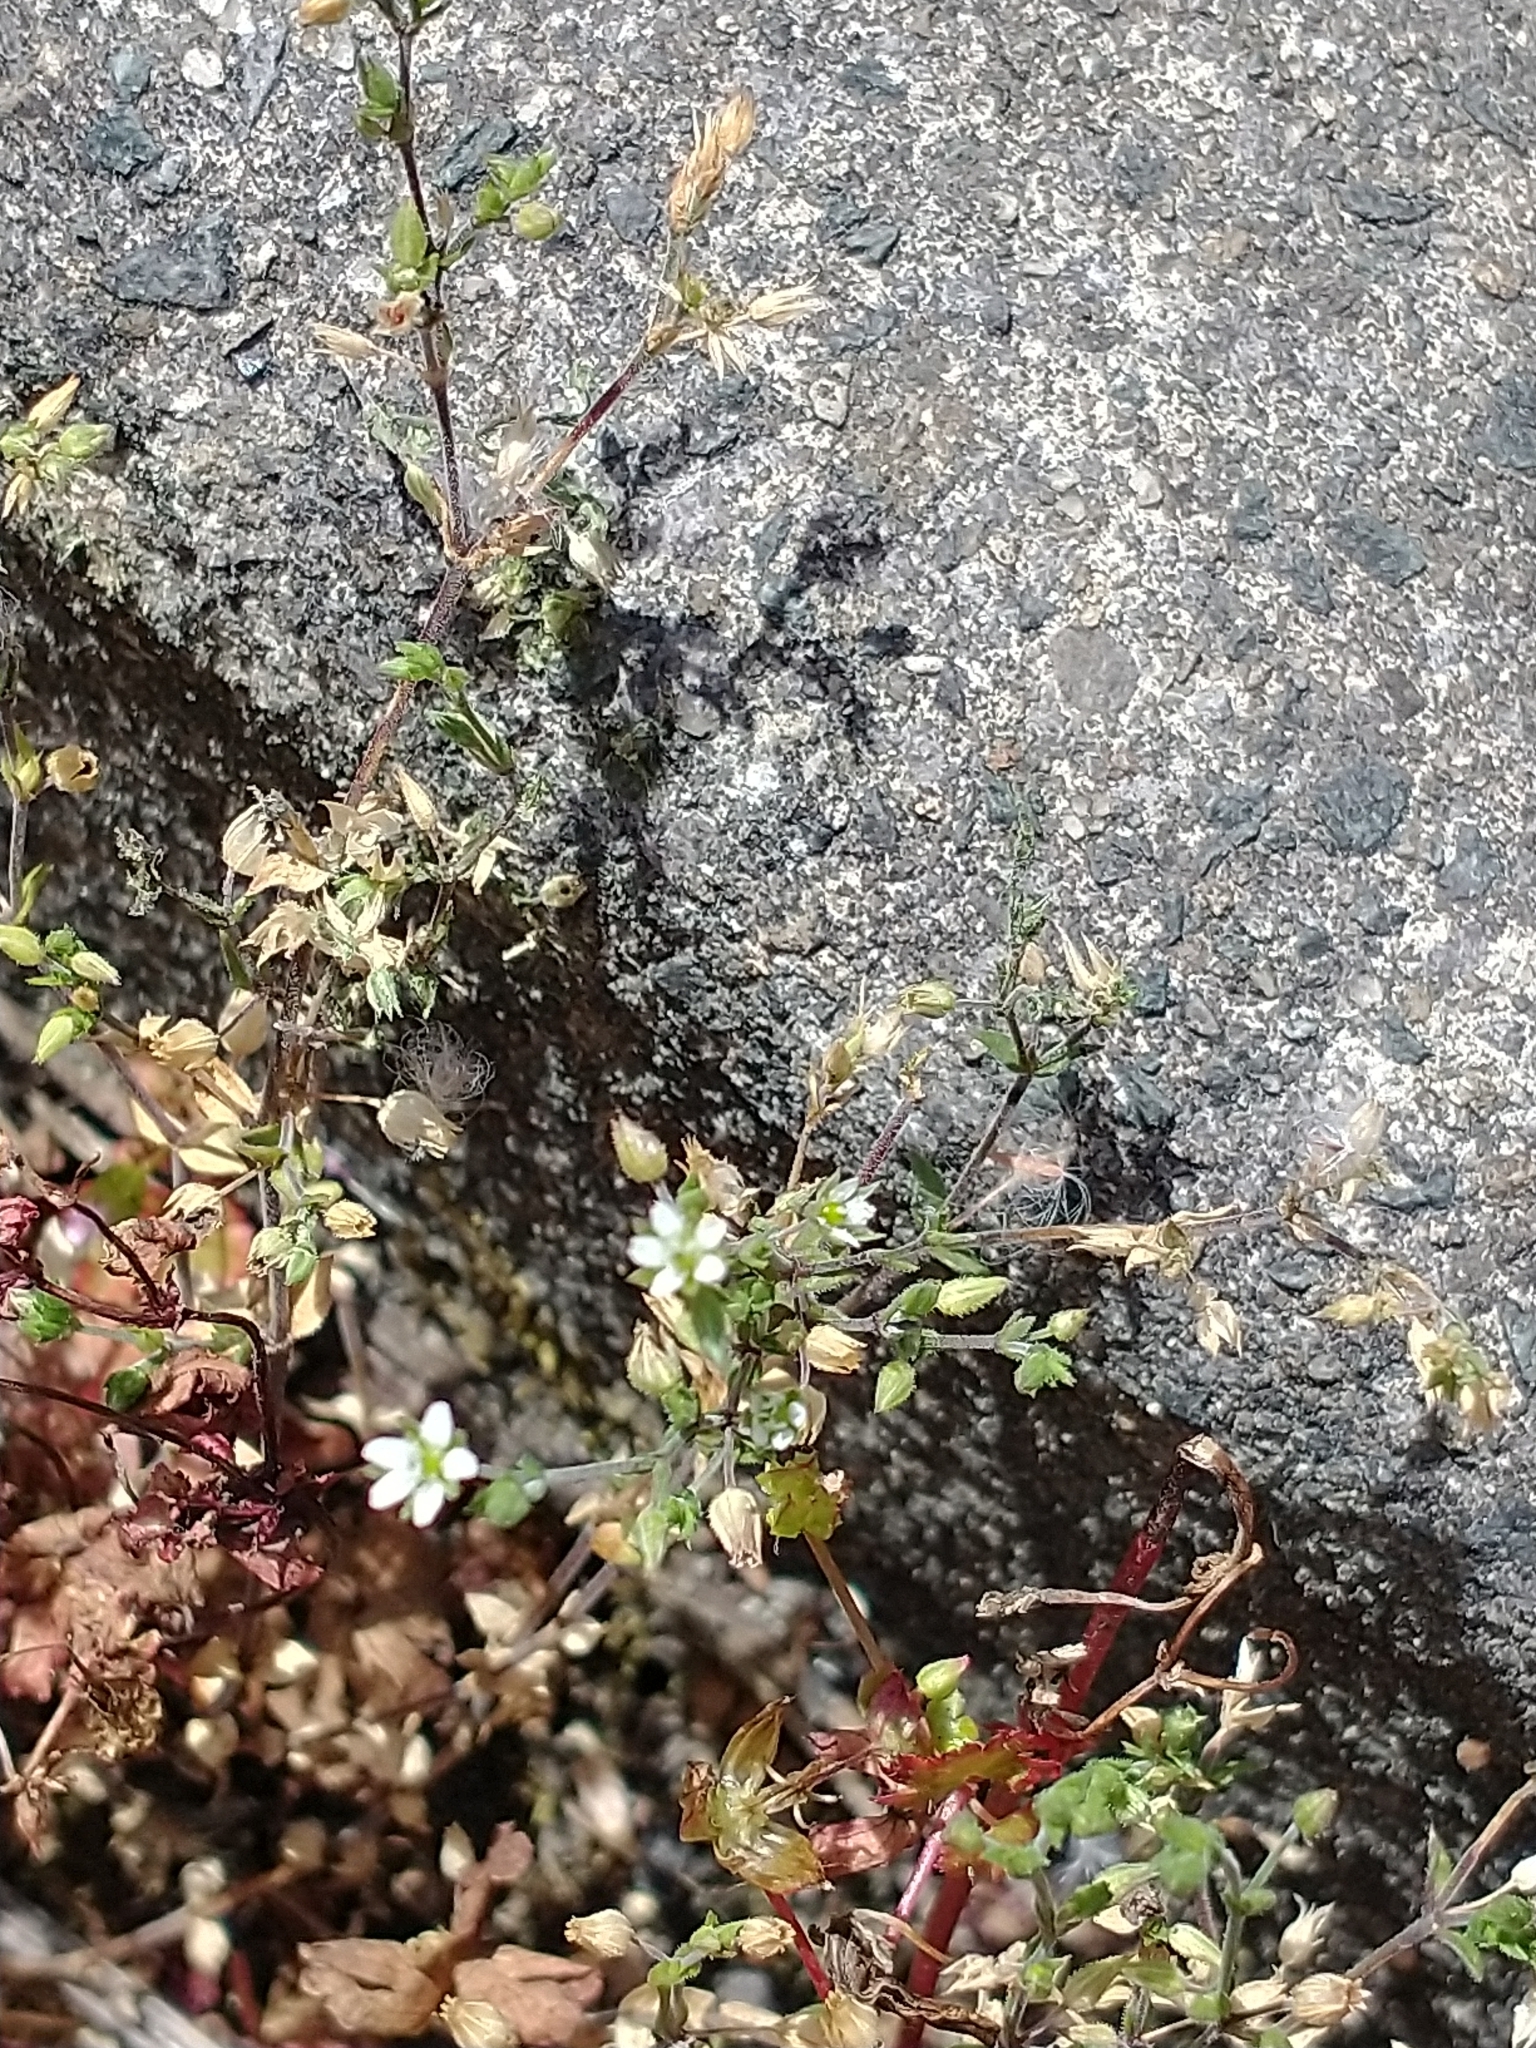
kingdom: Plantae
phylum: Tracheophyta
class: Magnoliopsida
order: Caryophyllales
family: Caryophyllaceae
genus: Arenaria
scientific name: Arenaria serpyllifolia
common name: Thyme-leaved sandwort
